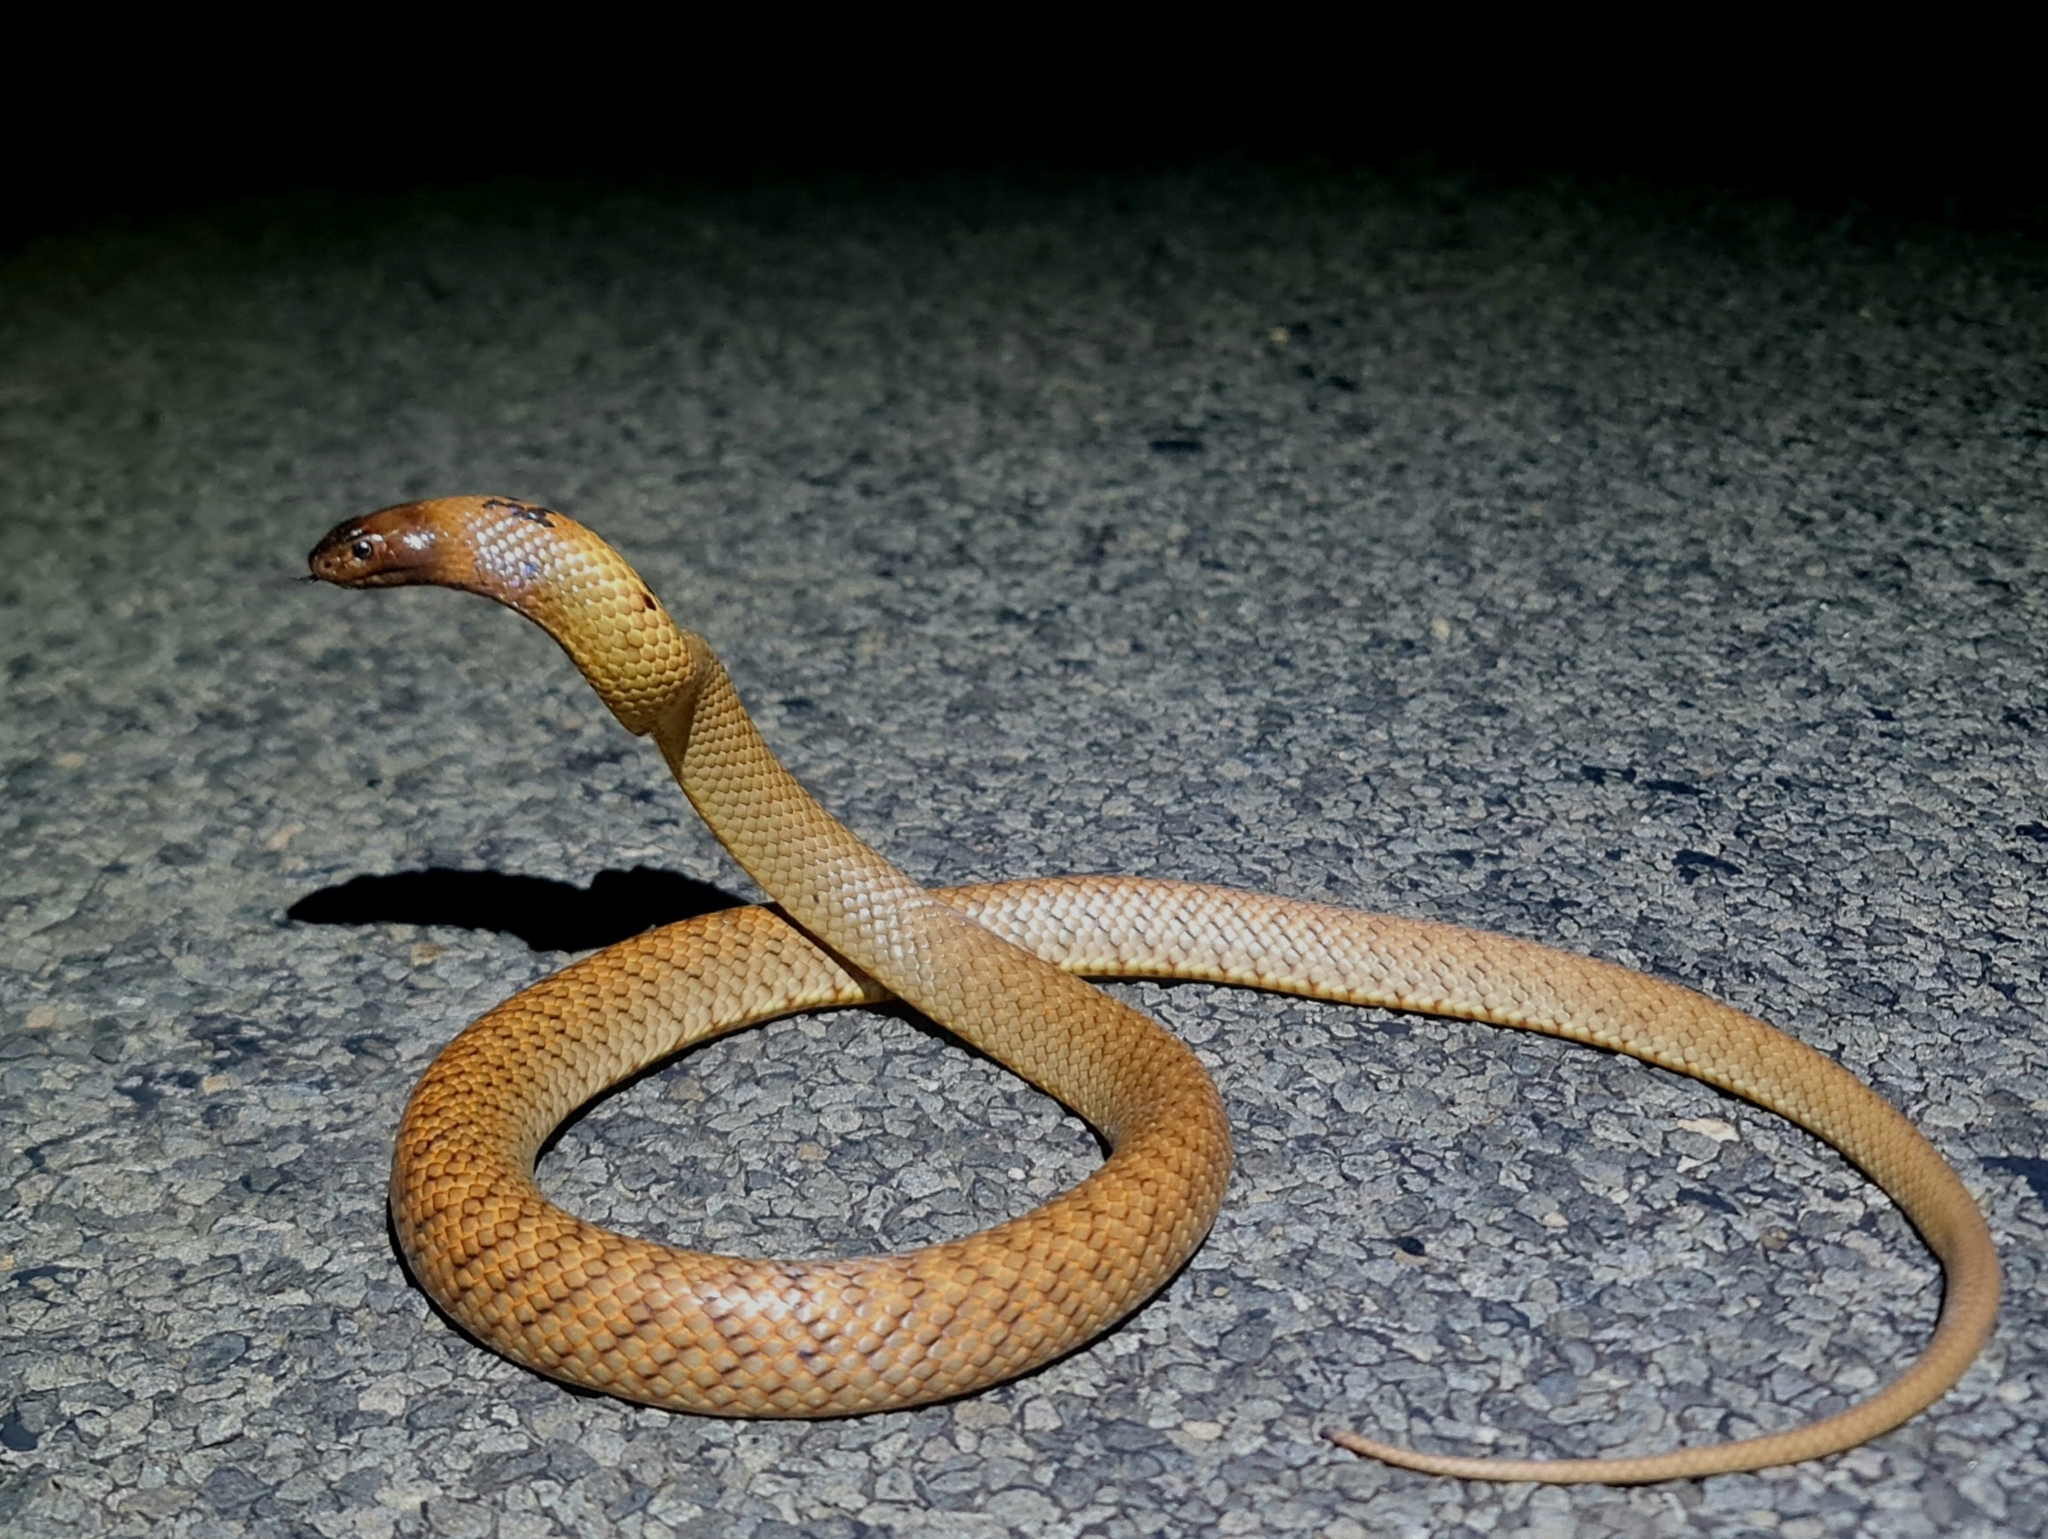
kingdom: Animalia
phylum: Chordata
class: Squamata
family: Elapidae
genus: Pseudonaja
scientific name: Pseudonaja aspidorhyncha
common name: Strap-snouted brown snake
